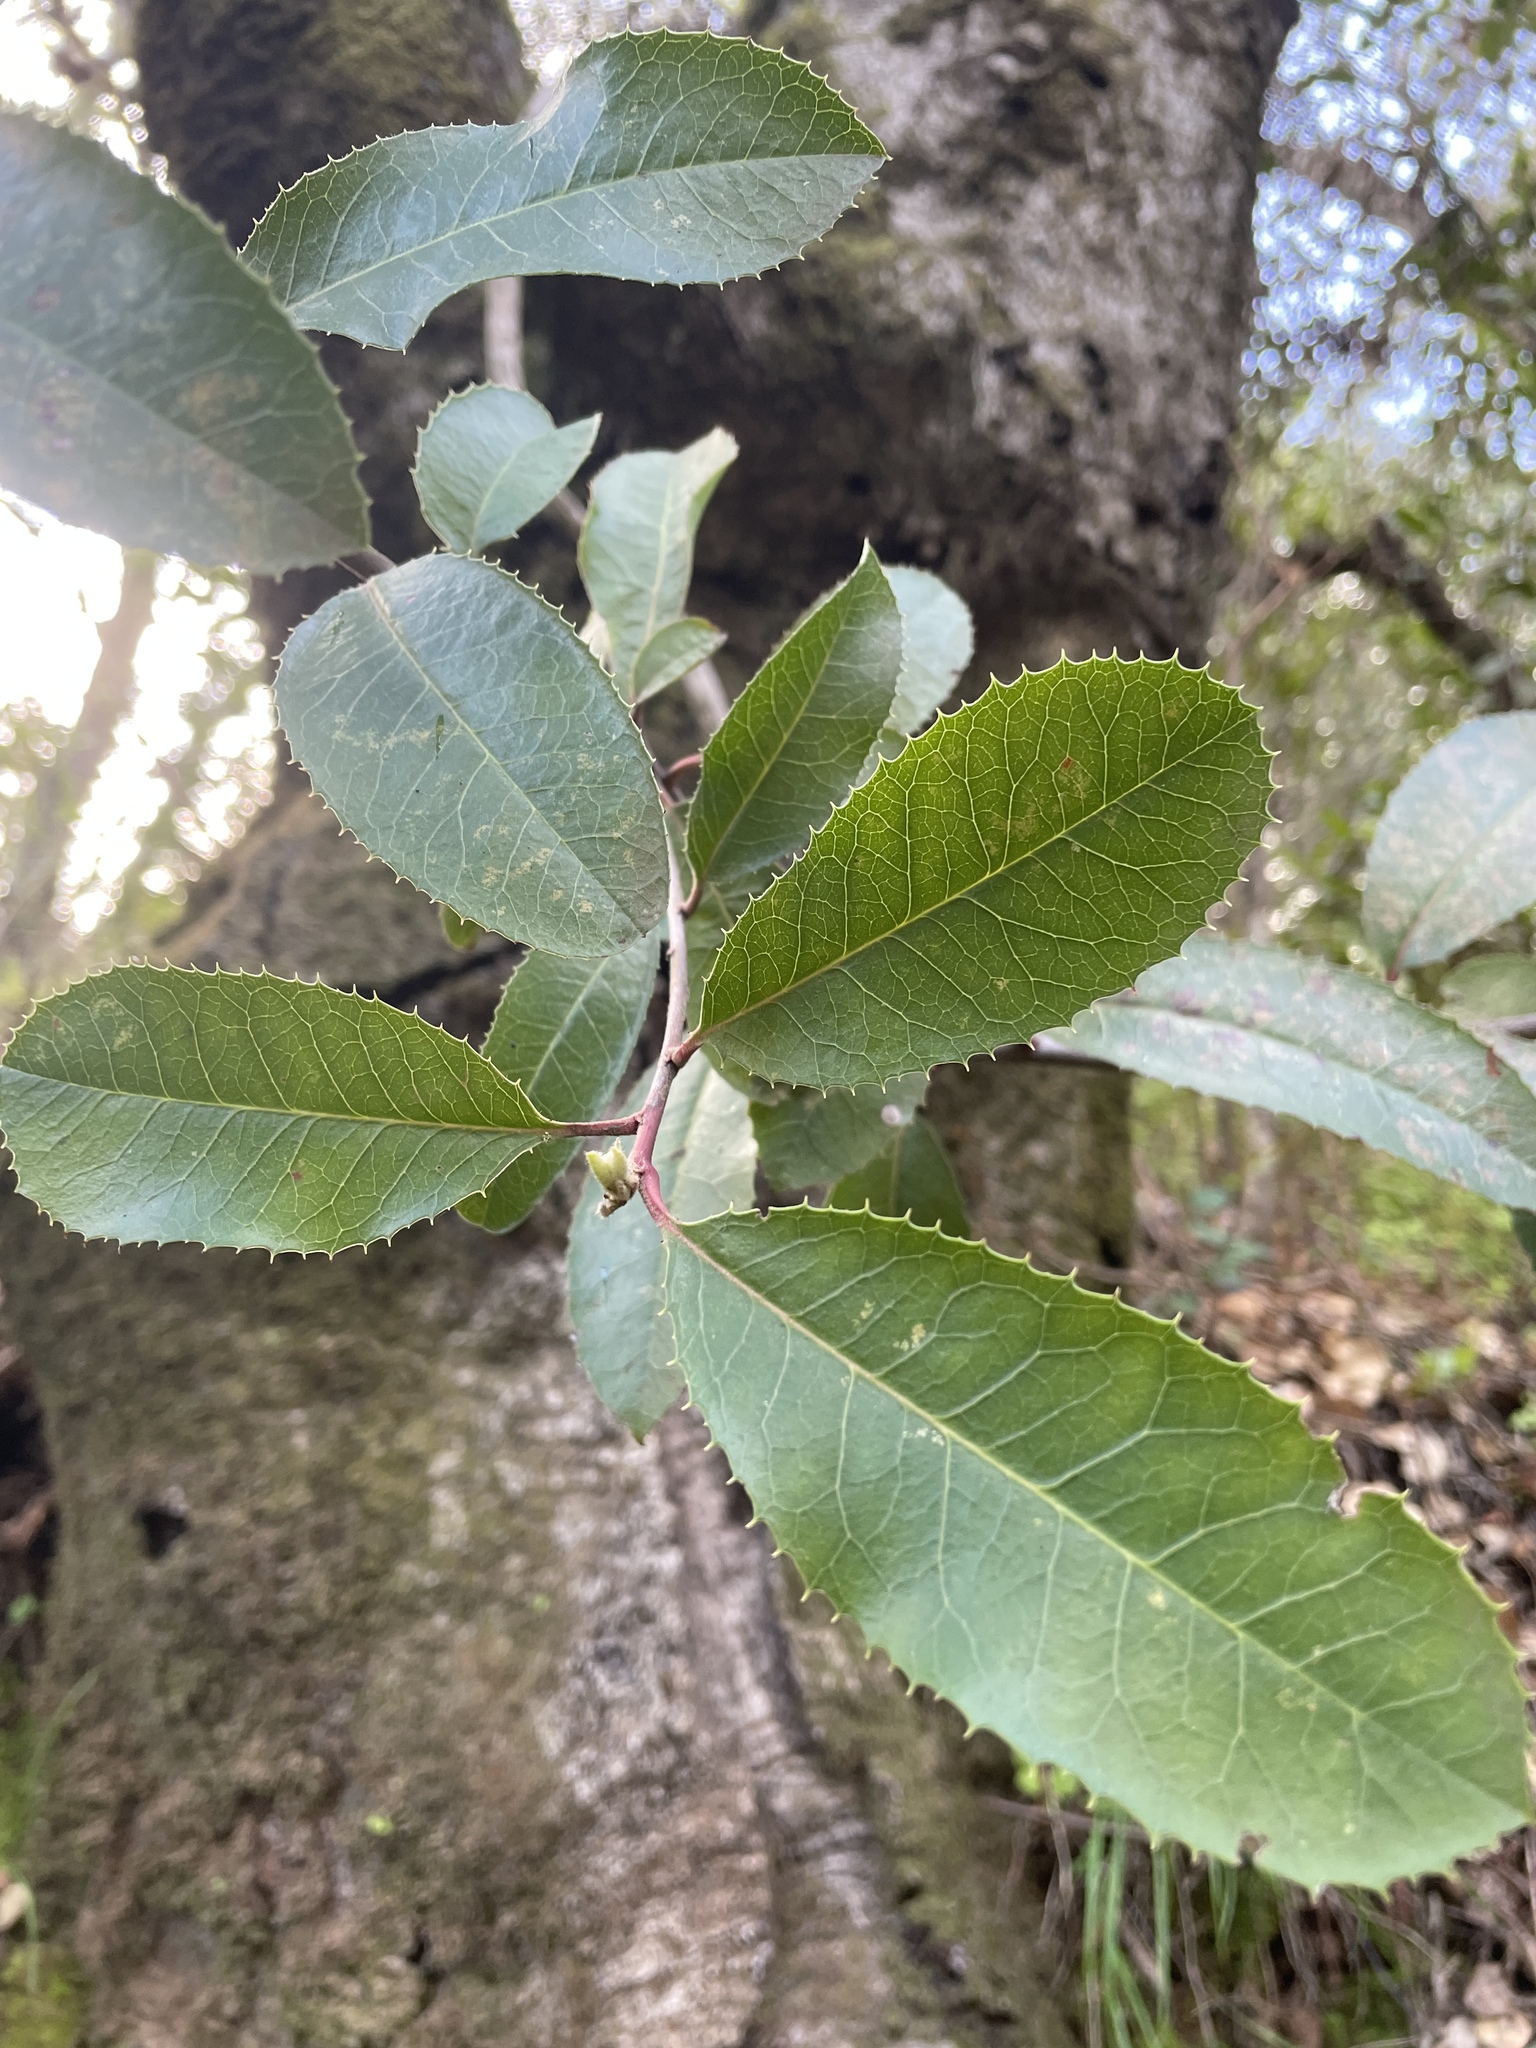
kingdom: Plantae
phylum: Tracheophyta
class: Magnoliopsida
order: Rosales
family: Rosaceae
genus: Heteromeles
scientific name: Heteromeles arbutifolia
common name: California-holly
